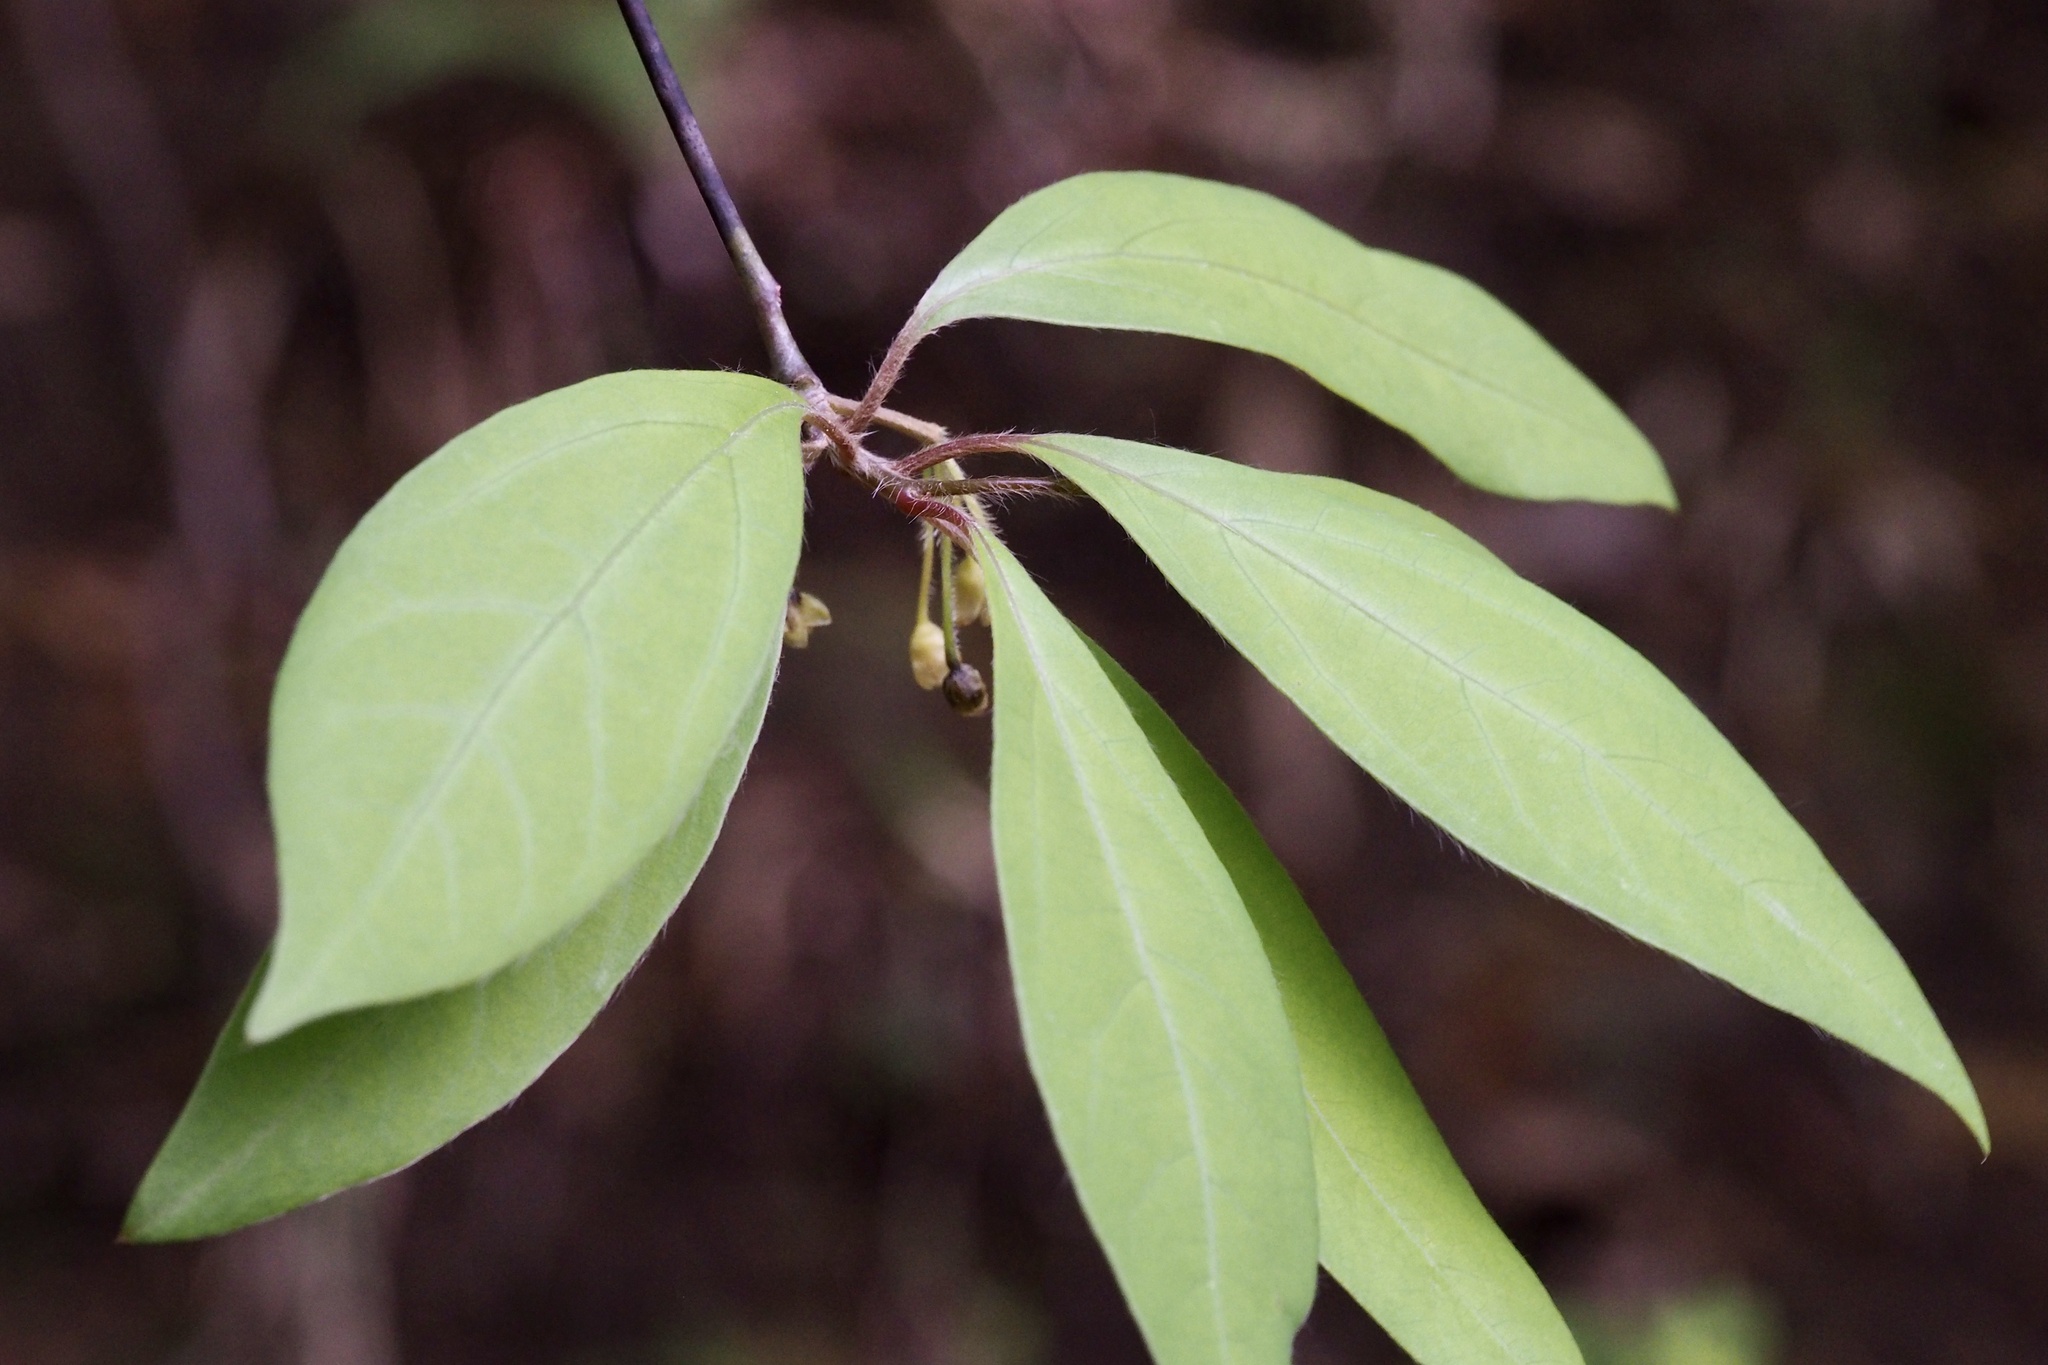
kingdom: Plantae
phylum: Tracheophyta
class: Magnoliopsida
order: Laurales
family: Lauraceae
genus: Lindera
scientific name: Lindera umbellata
